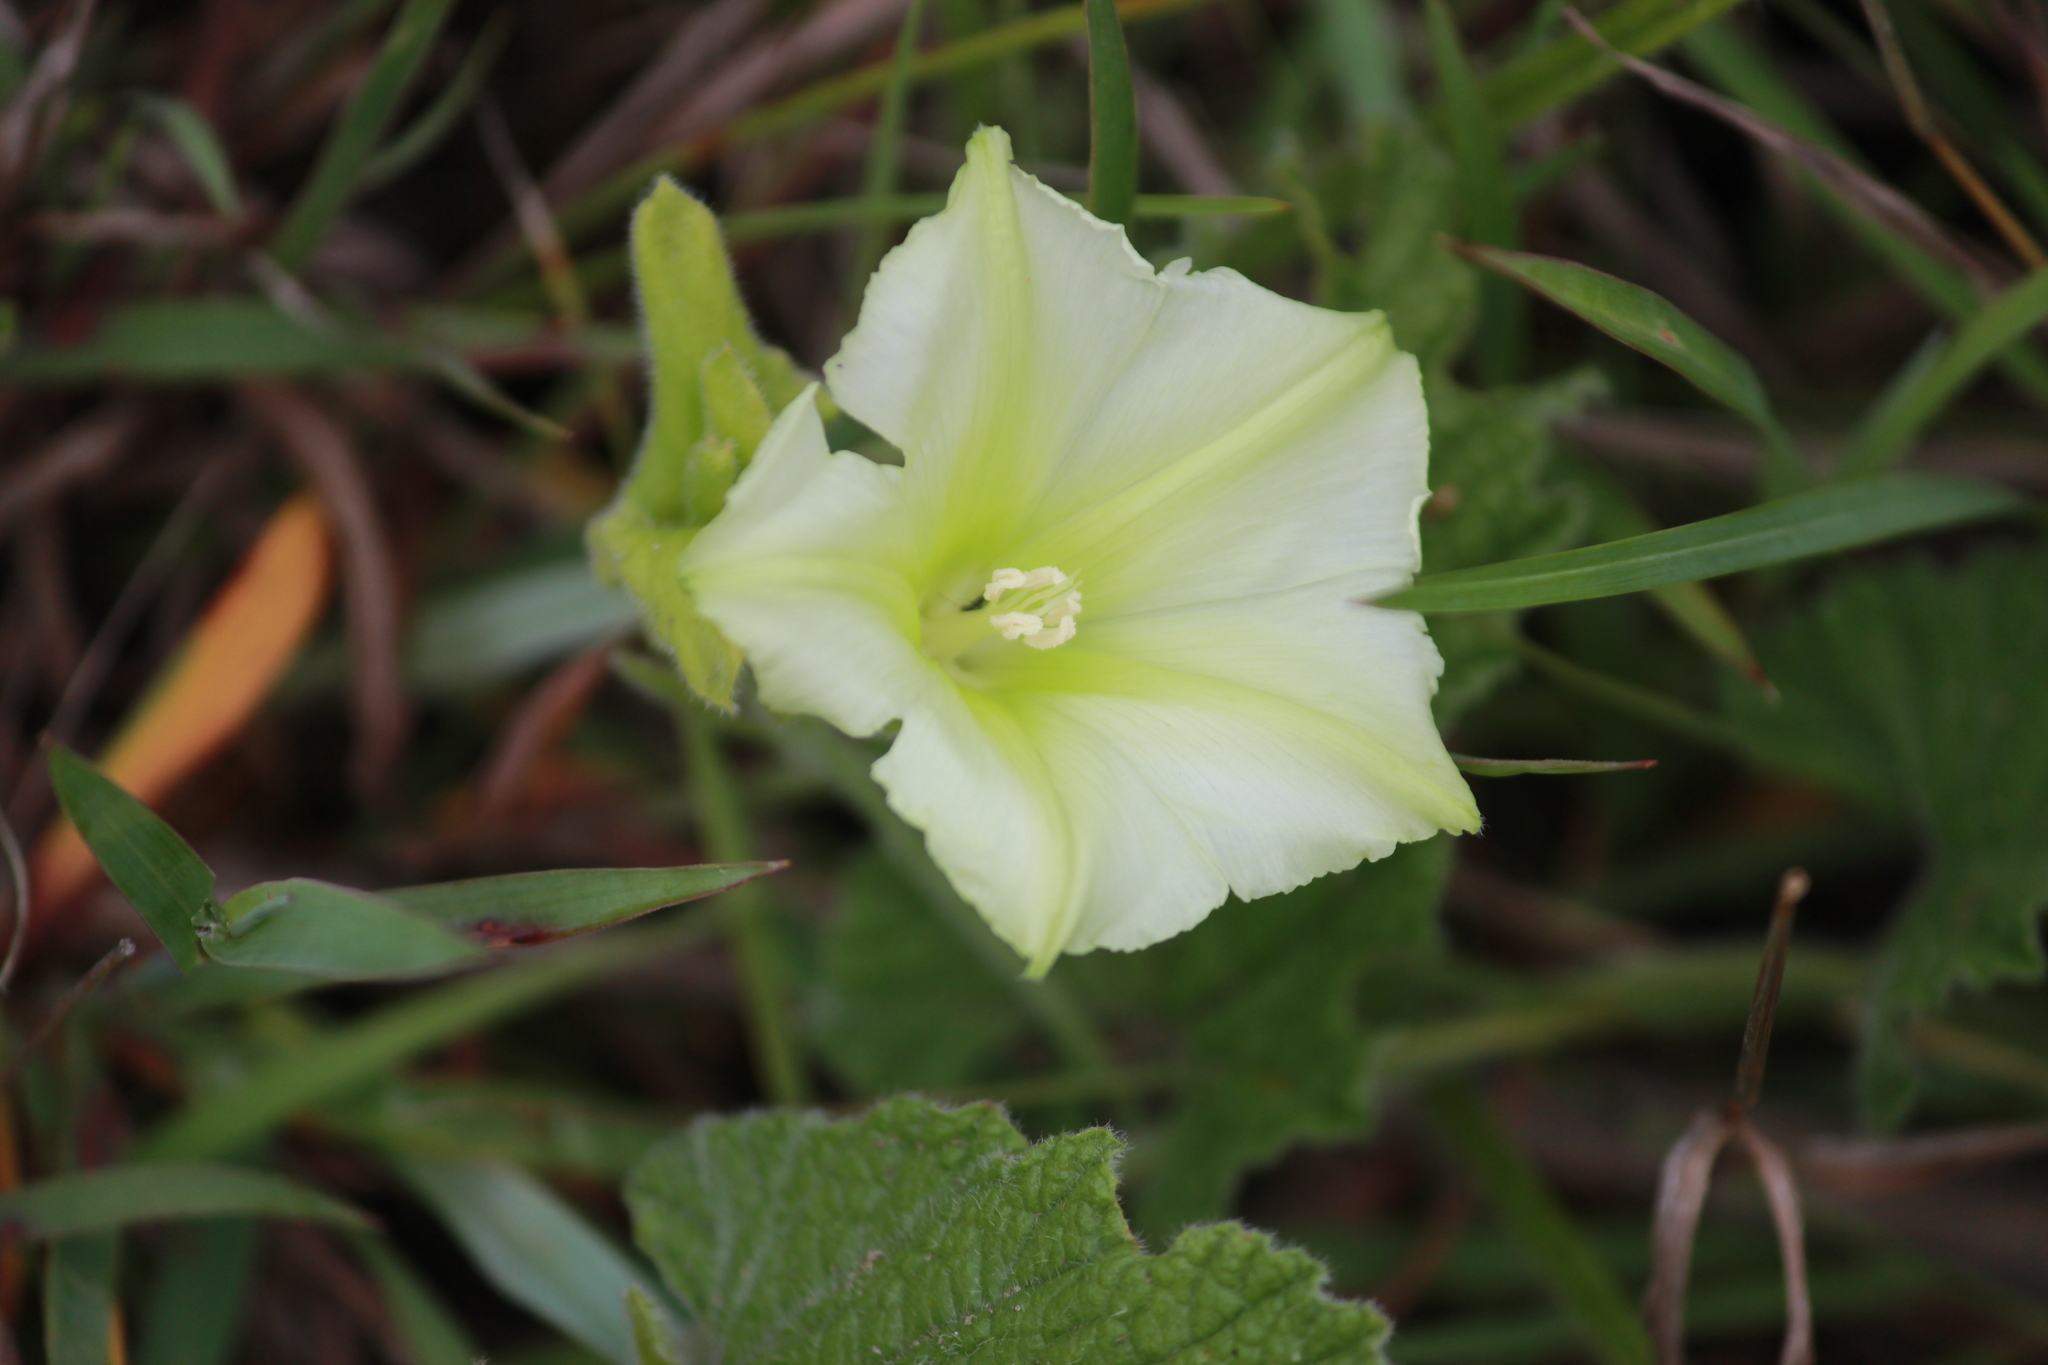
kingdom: Plantae
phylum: Tracheophyta
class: Magnoliopsida
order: Solanales
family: Convolvulaceae
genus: Convolvulus
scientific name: Convolvulus natalensis
